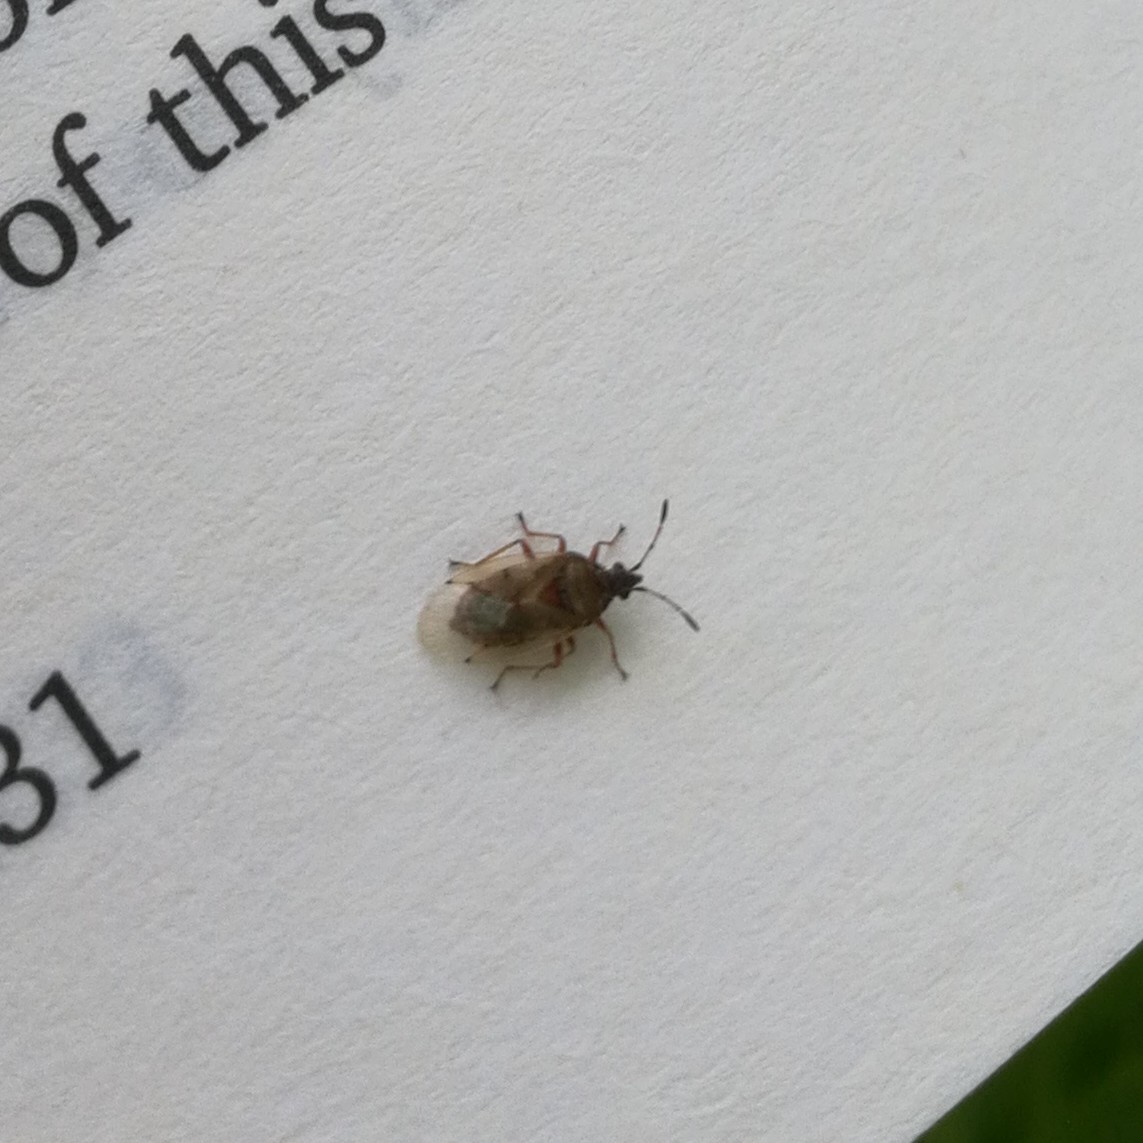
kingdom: Animalia
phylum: Arthropoda
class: Insecta
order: Hemiptera
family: Lygaeidae
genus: Kleidocerys
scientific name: Kleidocerys resedae
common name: Birch catkin bug
